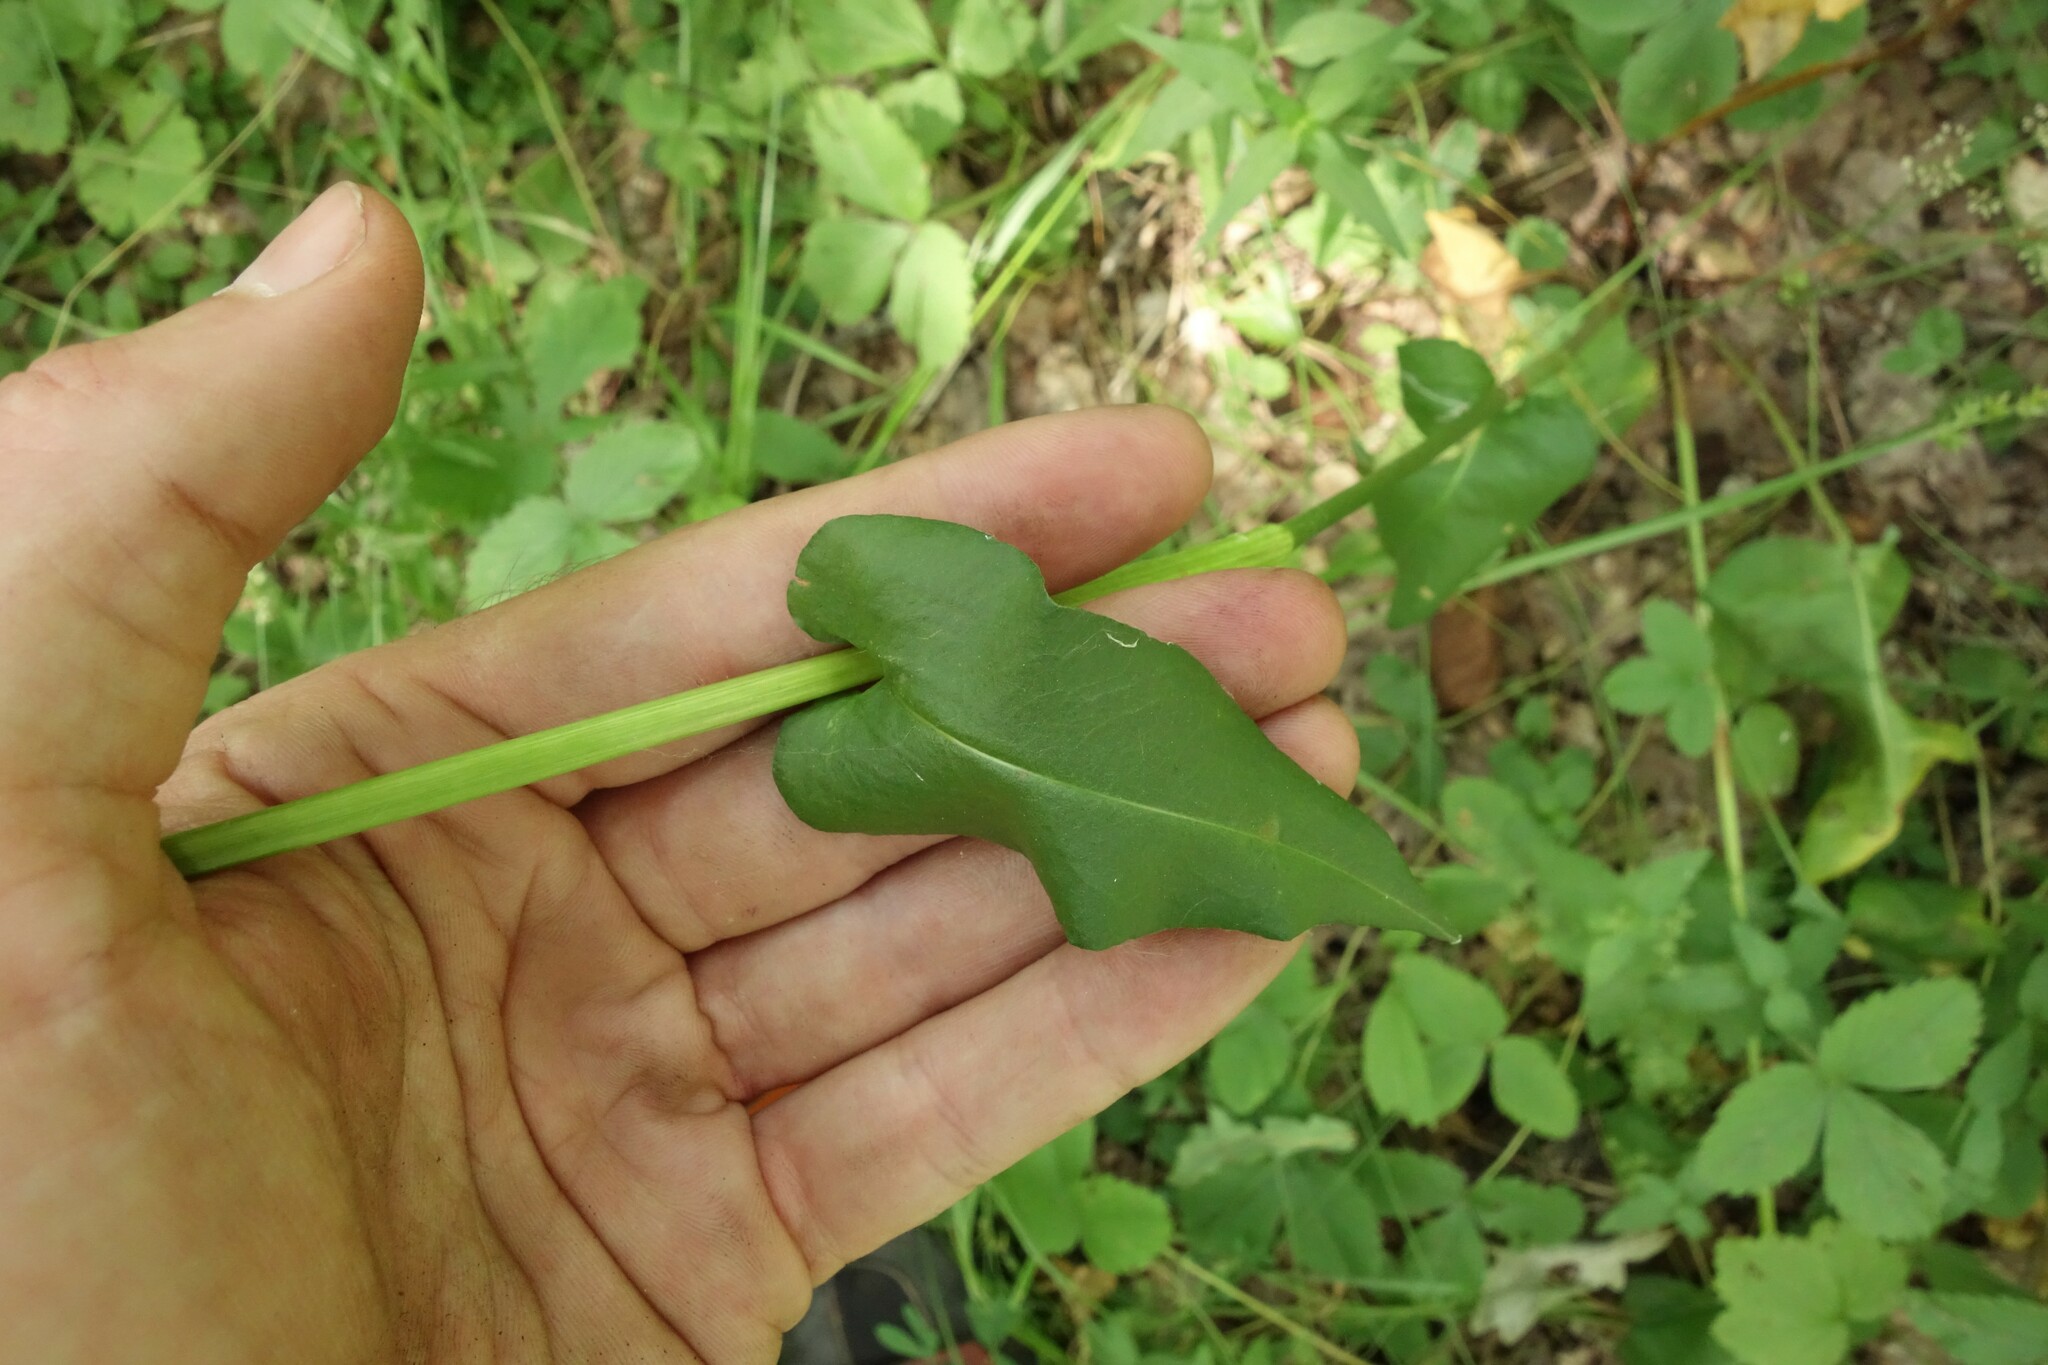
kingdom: Plantae
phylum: Tracheophyta
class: Magnoliopsida
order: Caryophyllales
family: Polygonaceae
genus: Bistorta
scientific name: Bistorta officinalis
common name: Common bistort
